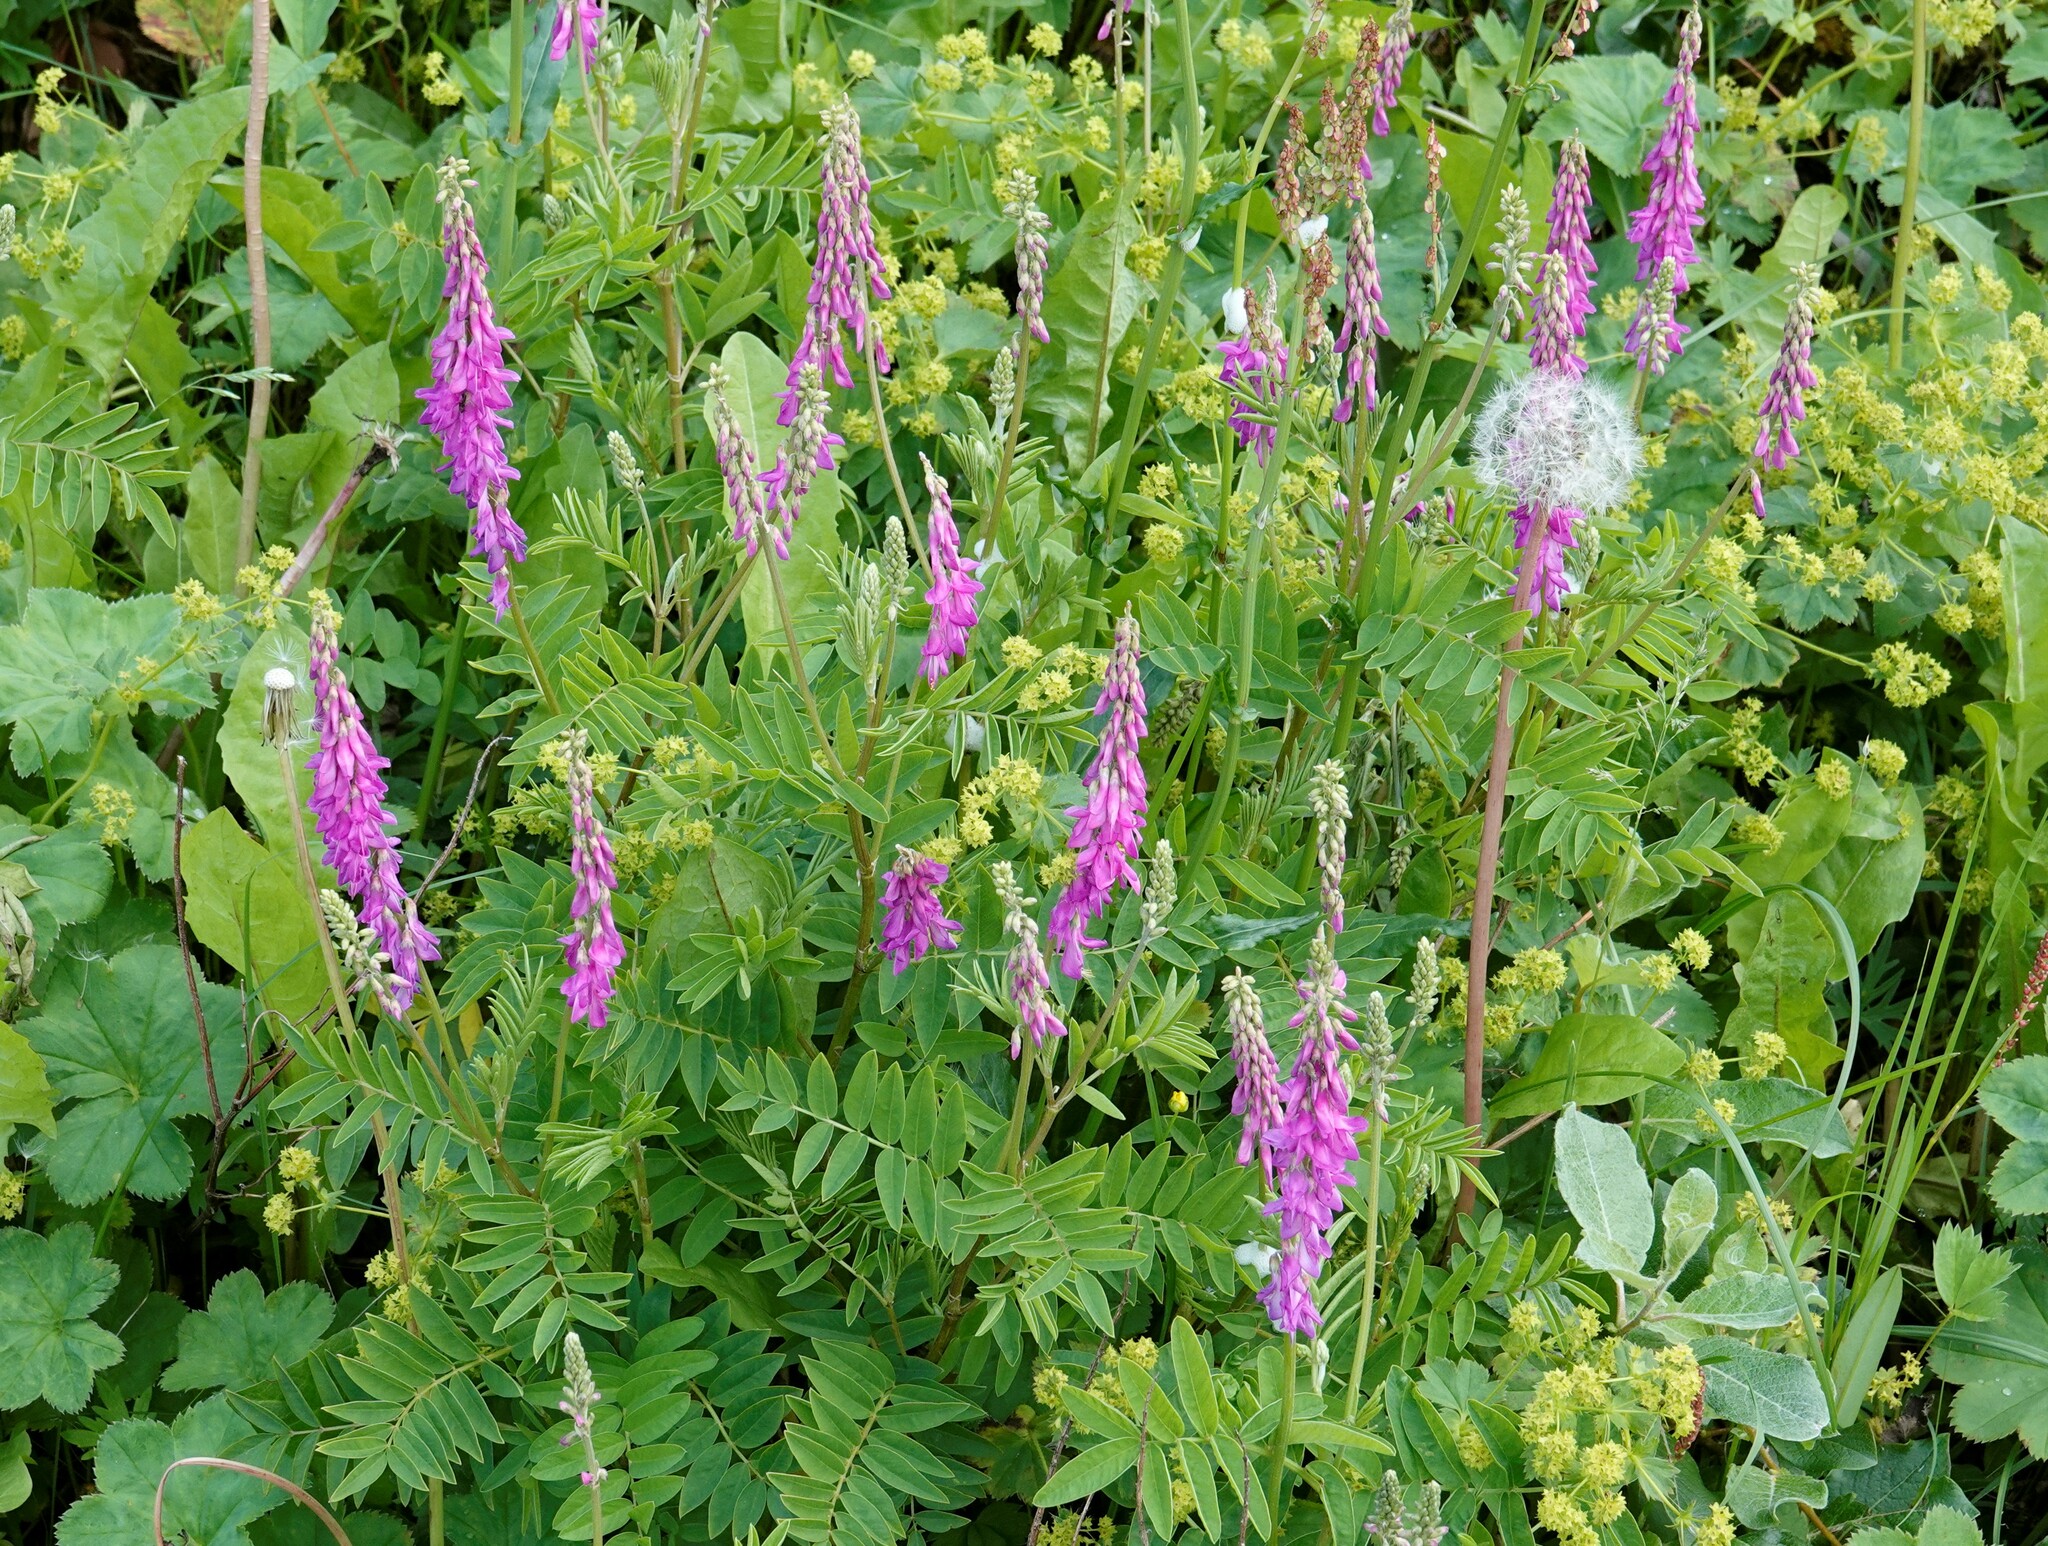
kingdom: Plantae
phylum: Tracheophyta
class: Magnoliopsida
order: Fabales
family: Fabaceae
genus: Hedysarum
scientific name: Hedysarum alpinum
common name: Alpine sweet-vetch
